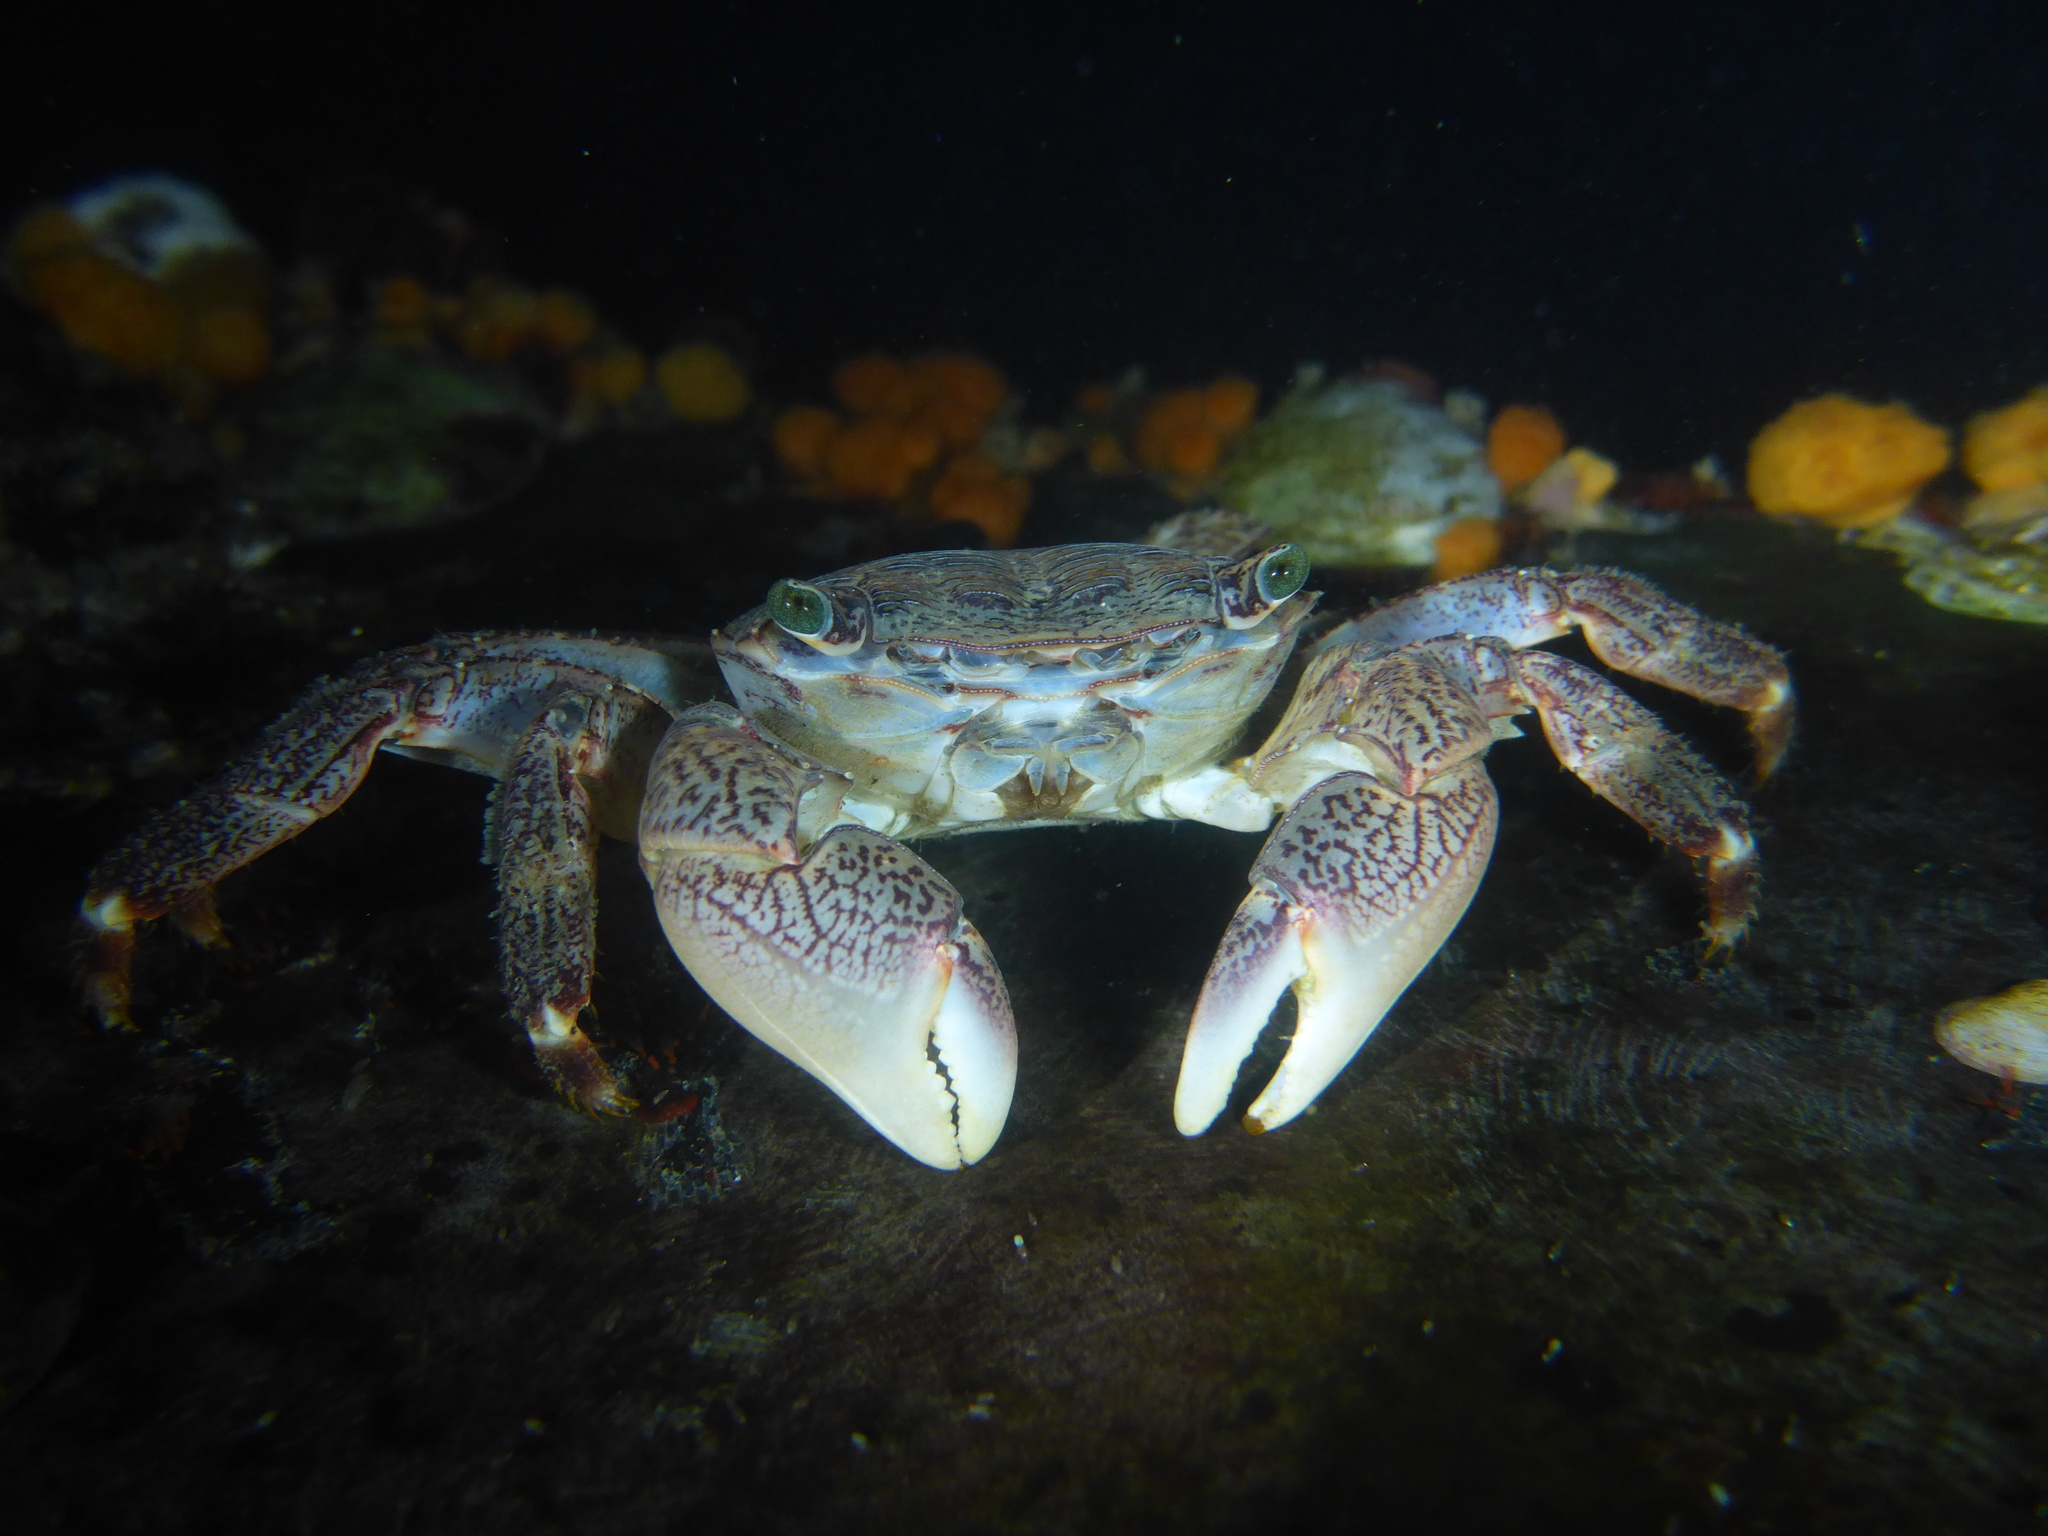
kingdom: Animalia
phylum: Arthropoda
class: Malacostraca
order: Decapoda
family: Grapsidae
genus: Pachygrapsus
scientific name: Pachygrapsus crassipes
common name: Striped shore crab
